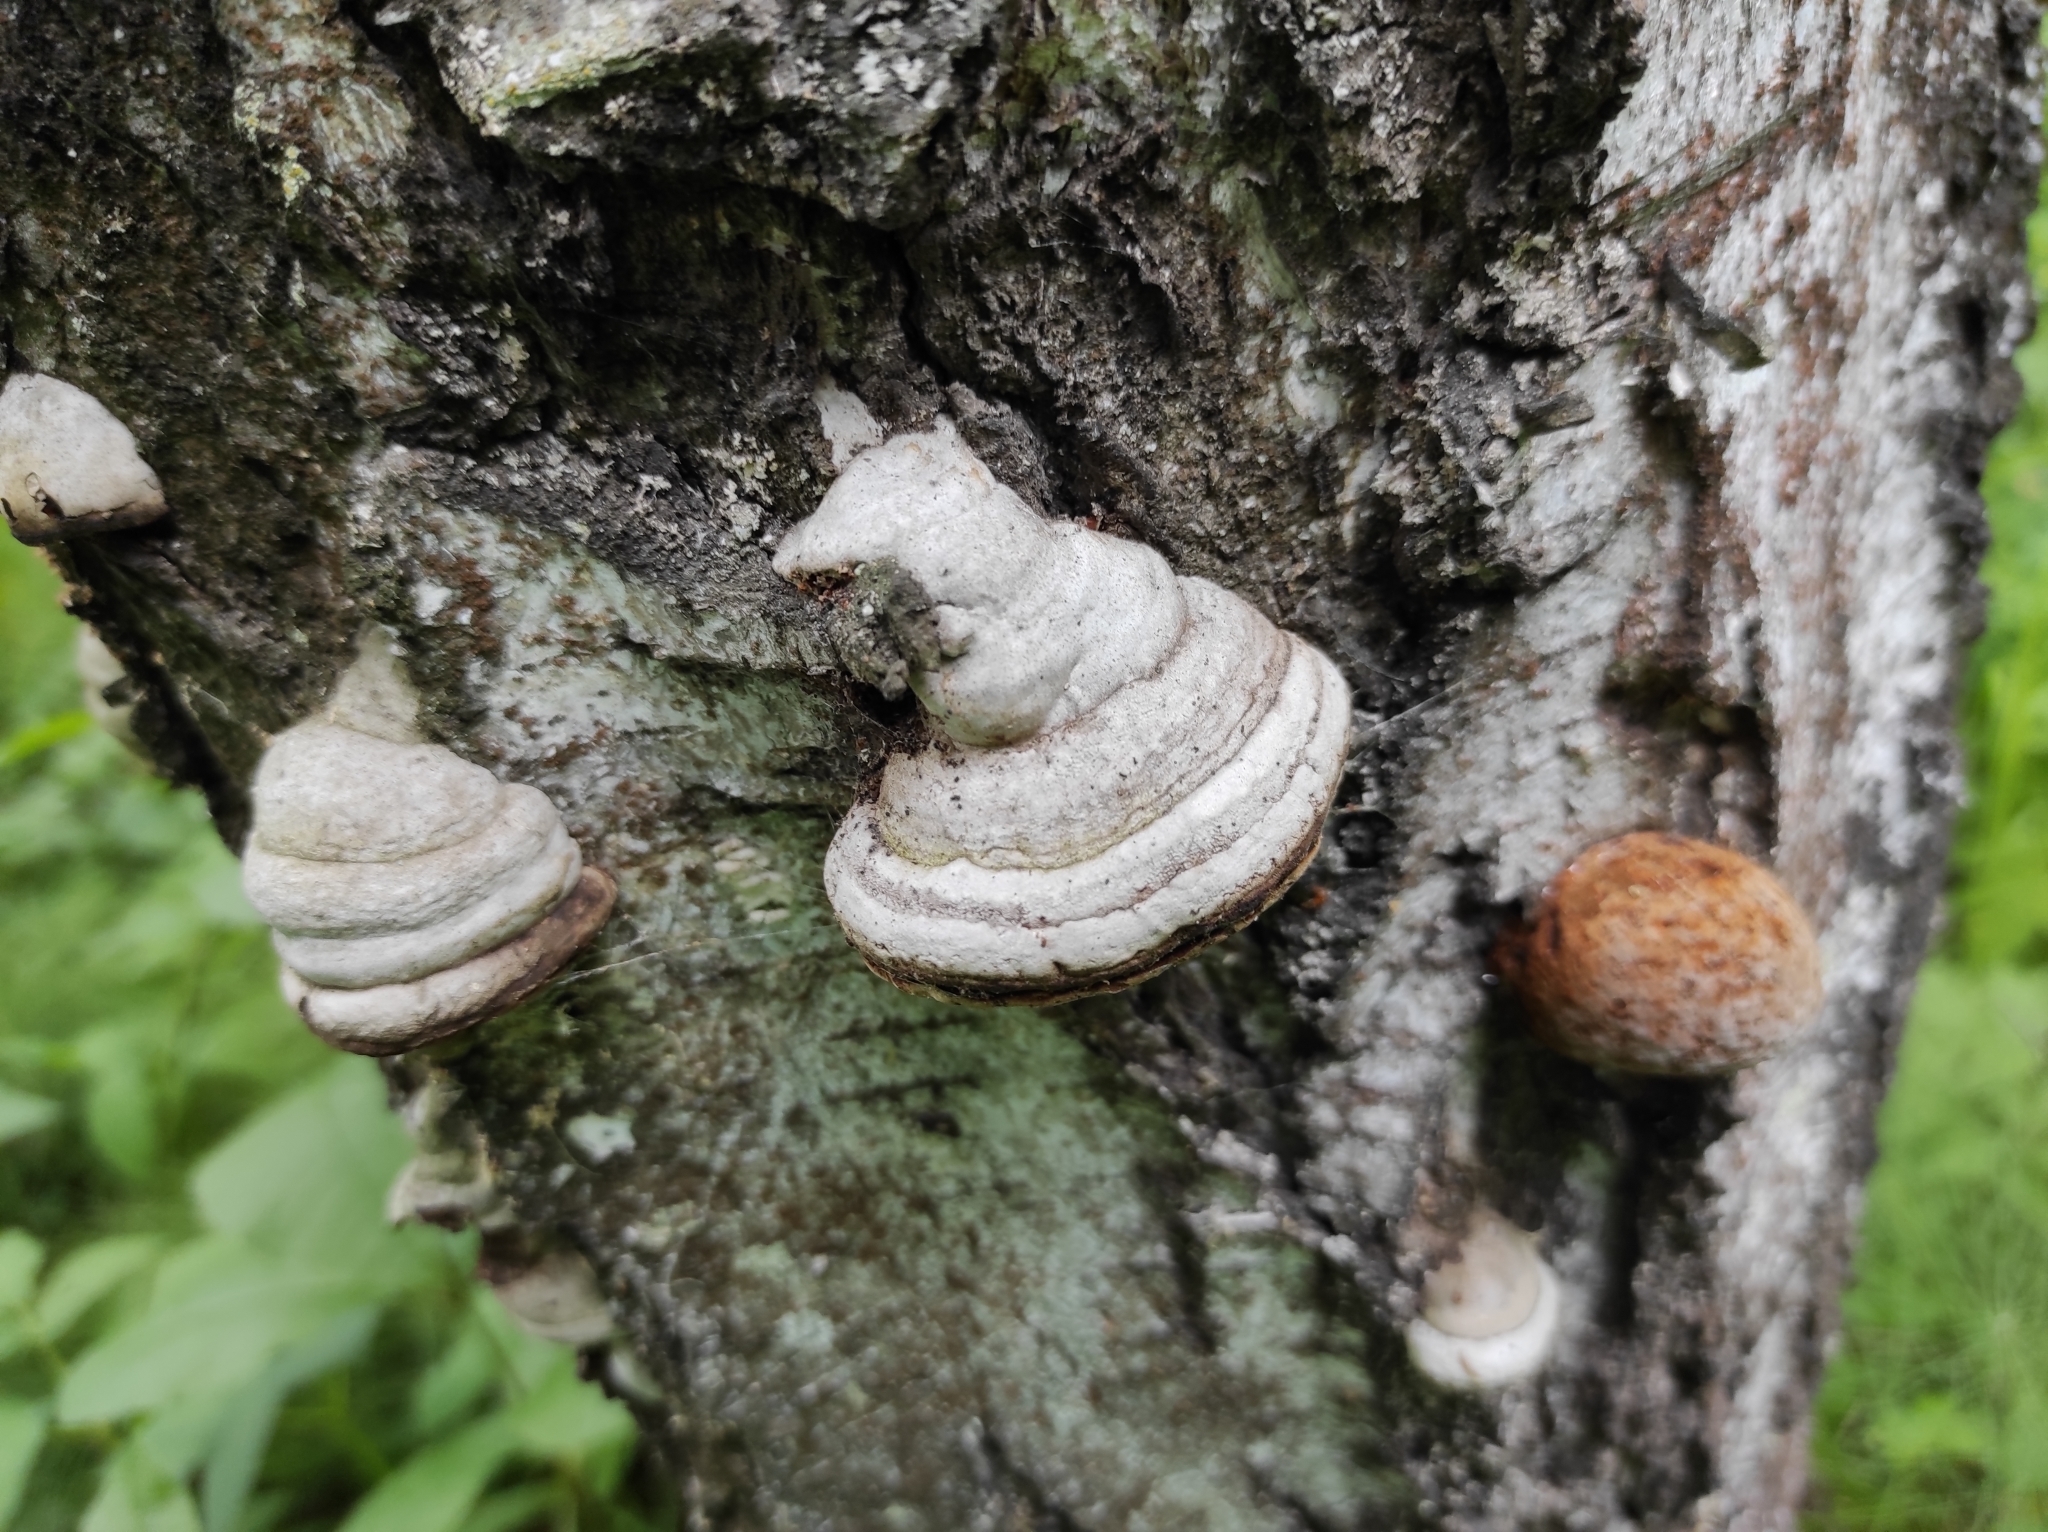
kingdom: Fungi
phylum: Basidiomycota
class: Agaricomycetes
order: Polyporales
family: Polyporaceae
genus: Fomes
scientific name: Fomes fomentarius
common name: Hoof fungus
